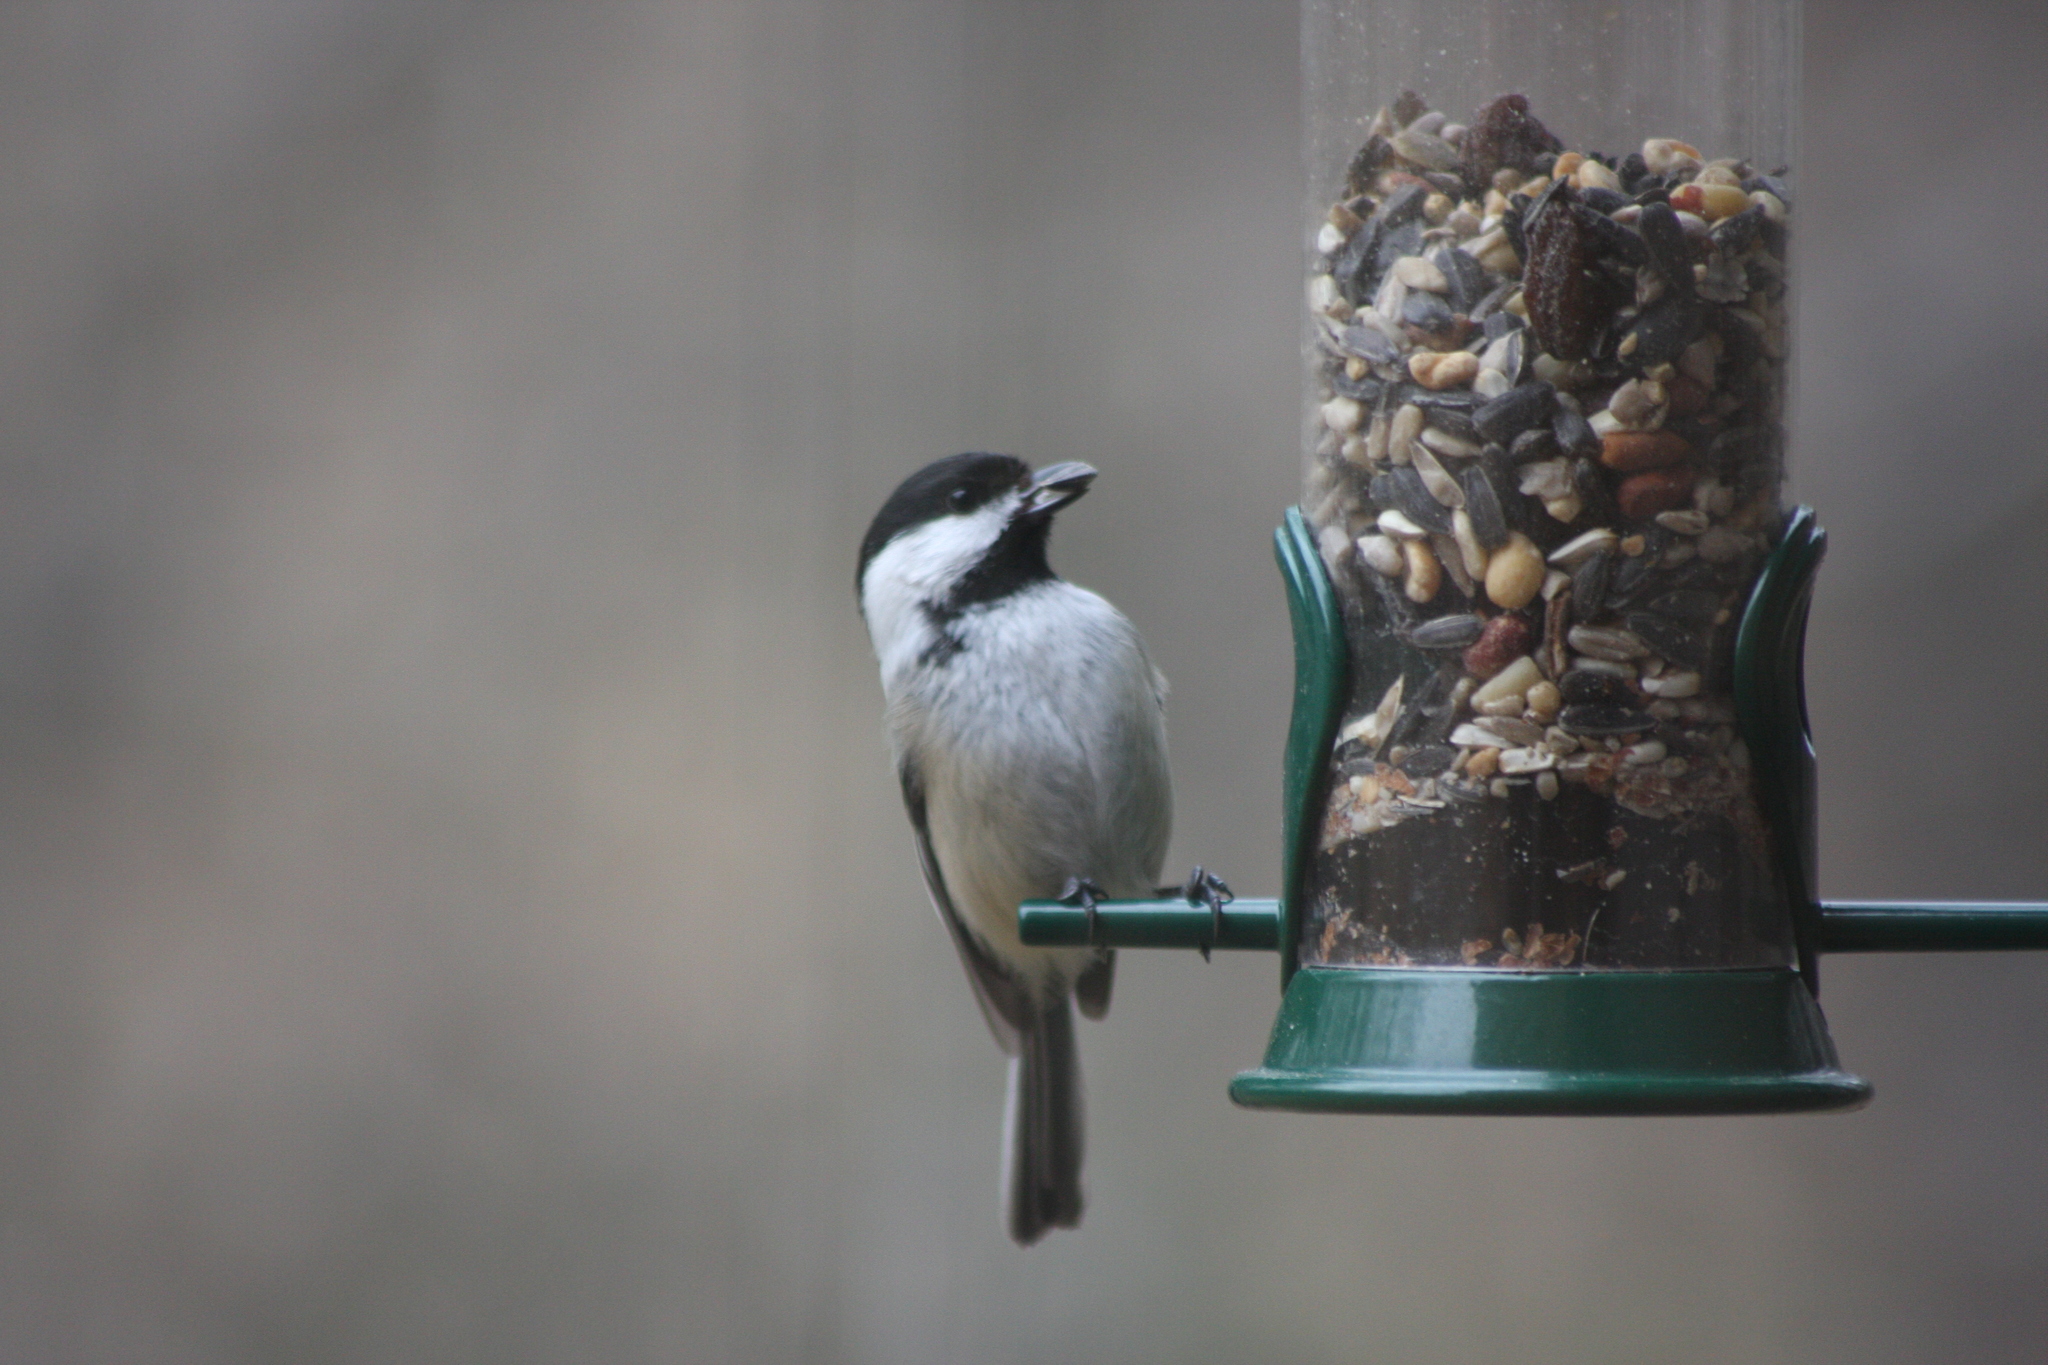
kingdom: Animalia
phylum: Chordata
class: Aves
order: Passeriformes
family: Paridae
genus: Poecile
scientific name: Poecile atricapillus
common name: Black-capped chickadee
